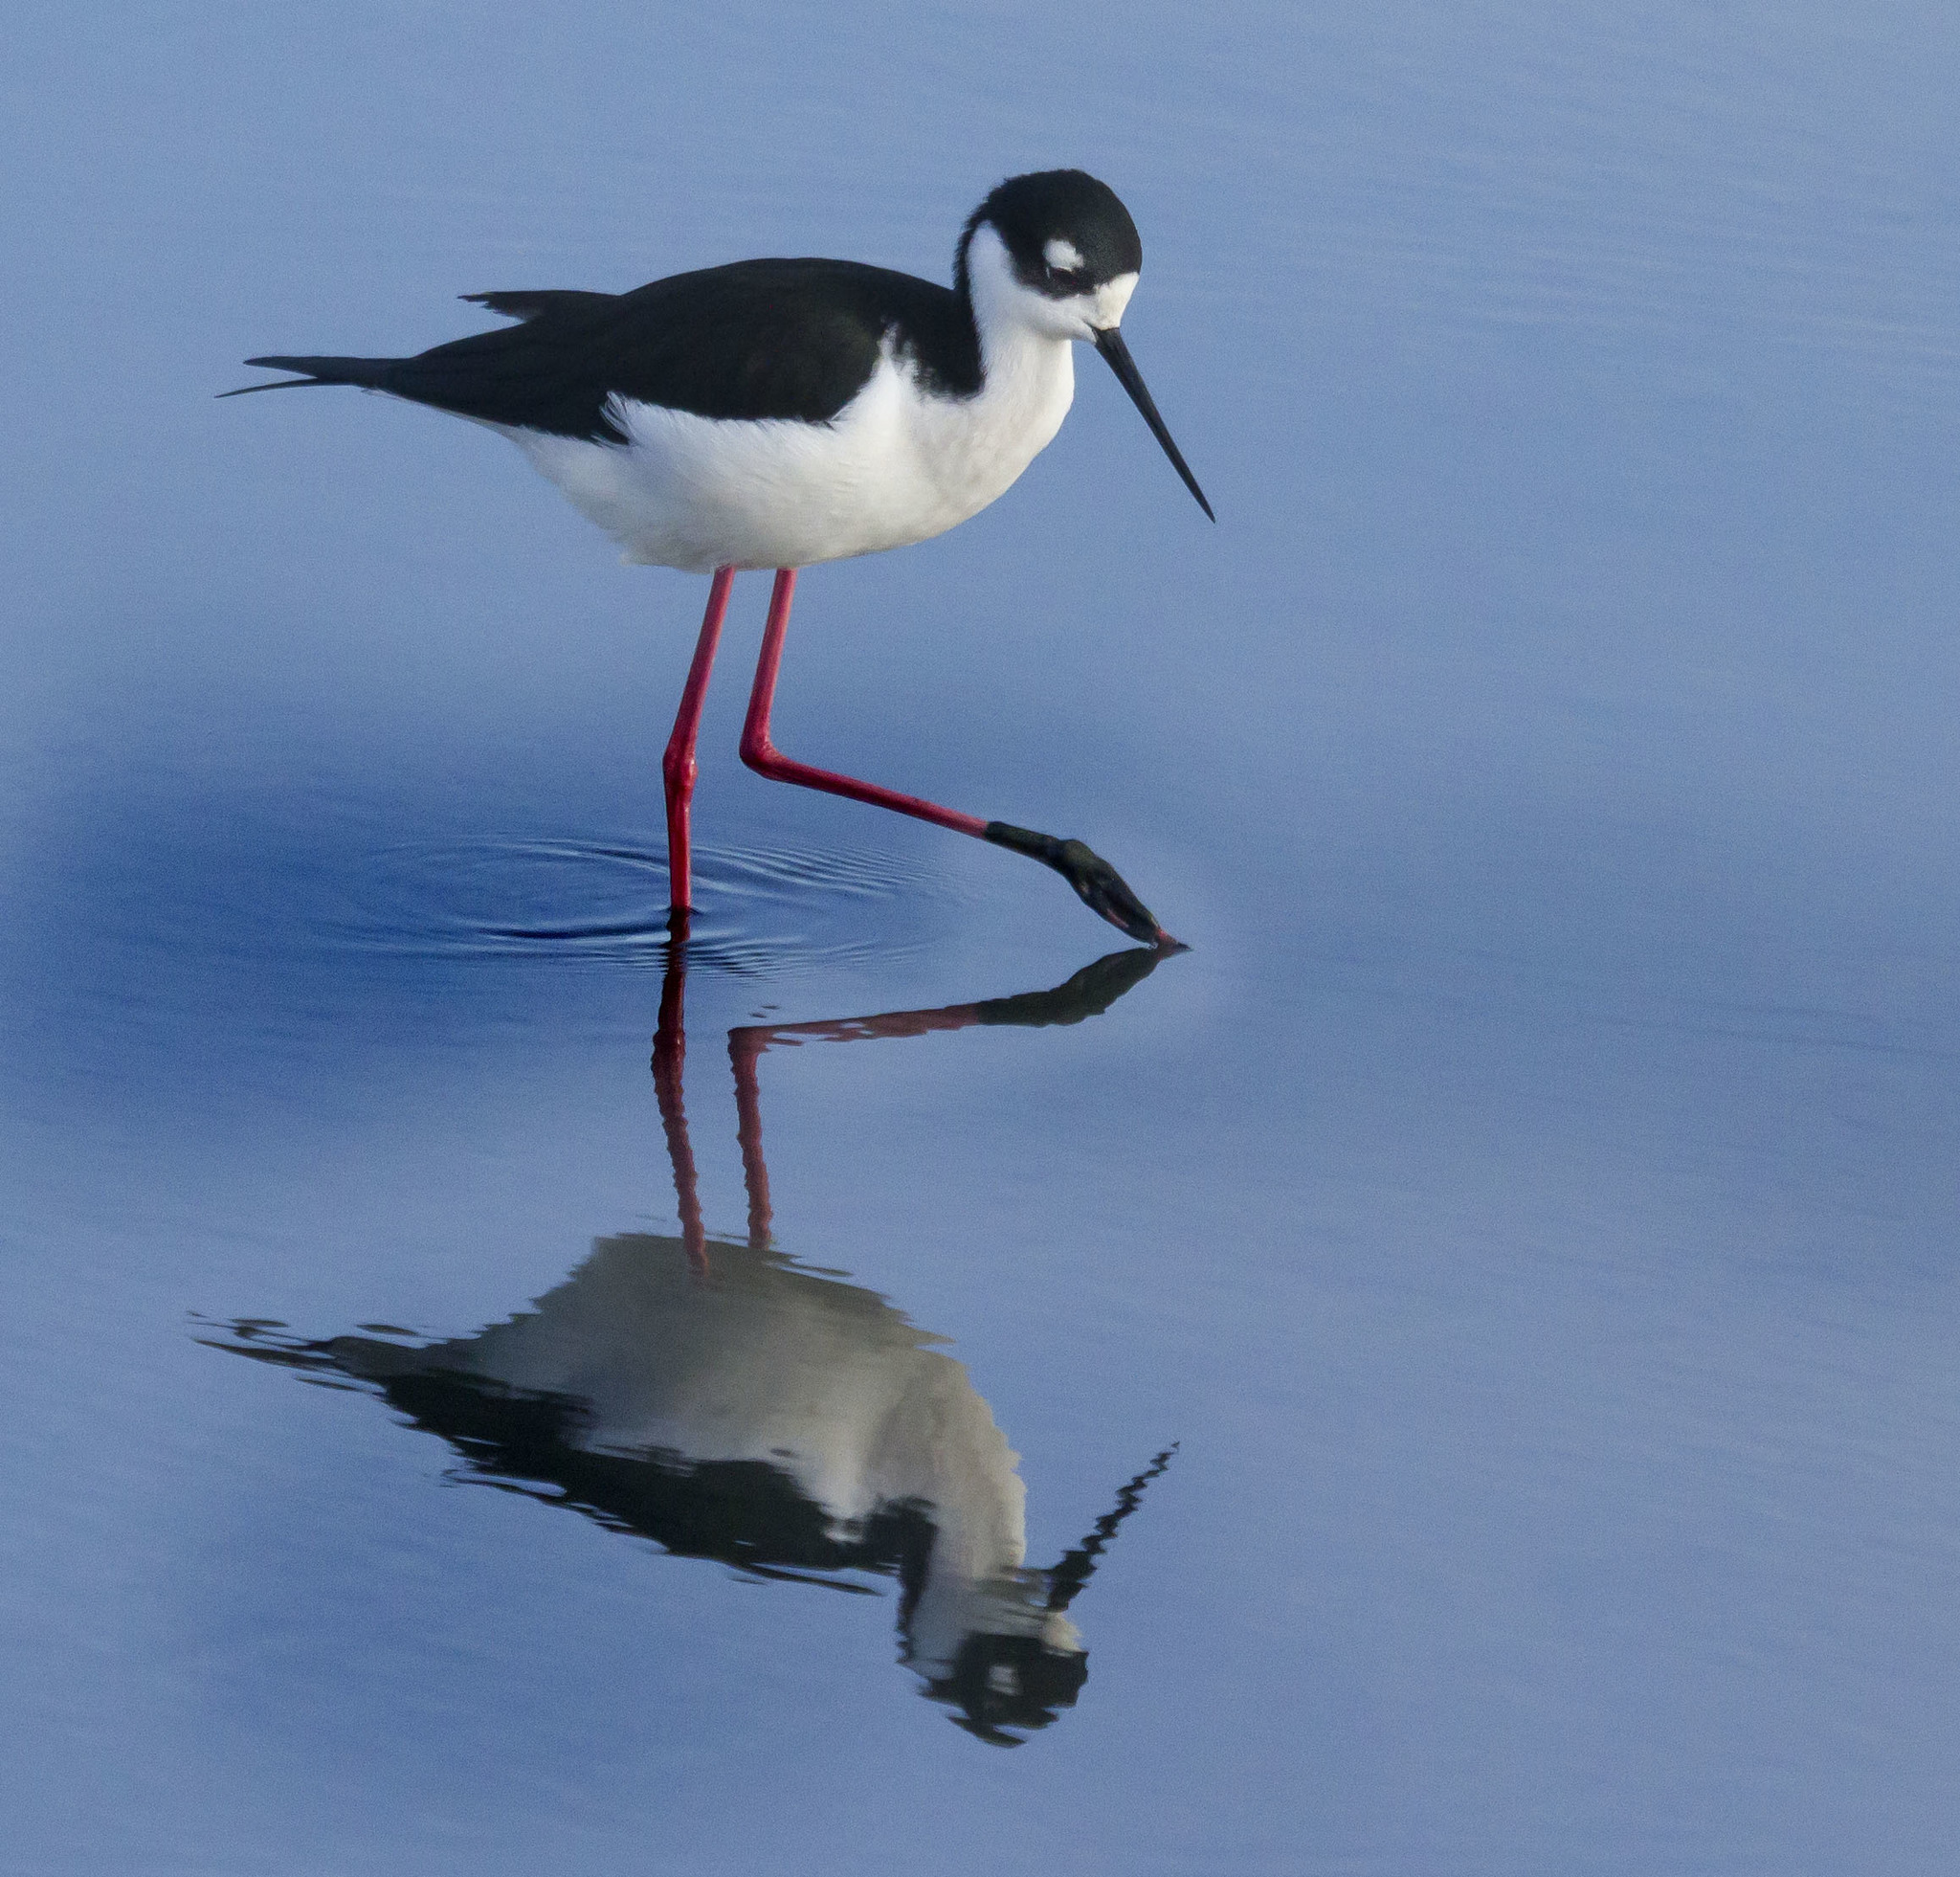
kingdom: Animalia
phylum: Chordata
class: Aves
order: Charadriiformes
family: Recurvirostridae
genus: Himantopus
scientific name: Himantopus mexicanus
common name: Black-necked stilt
